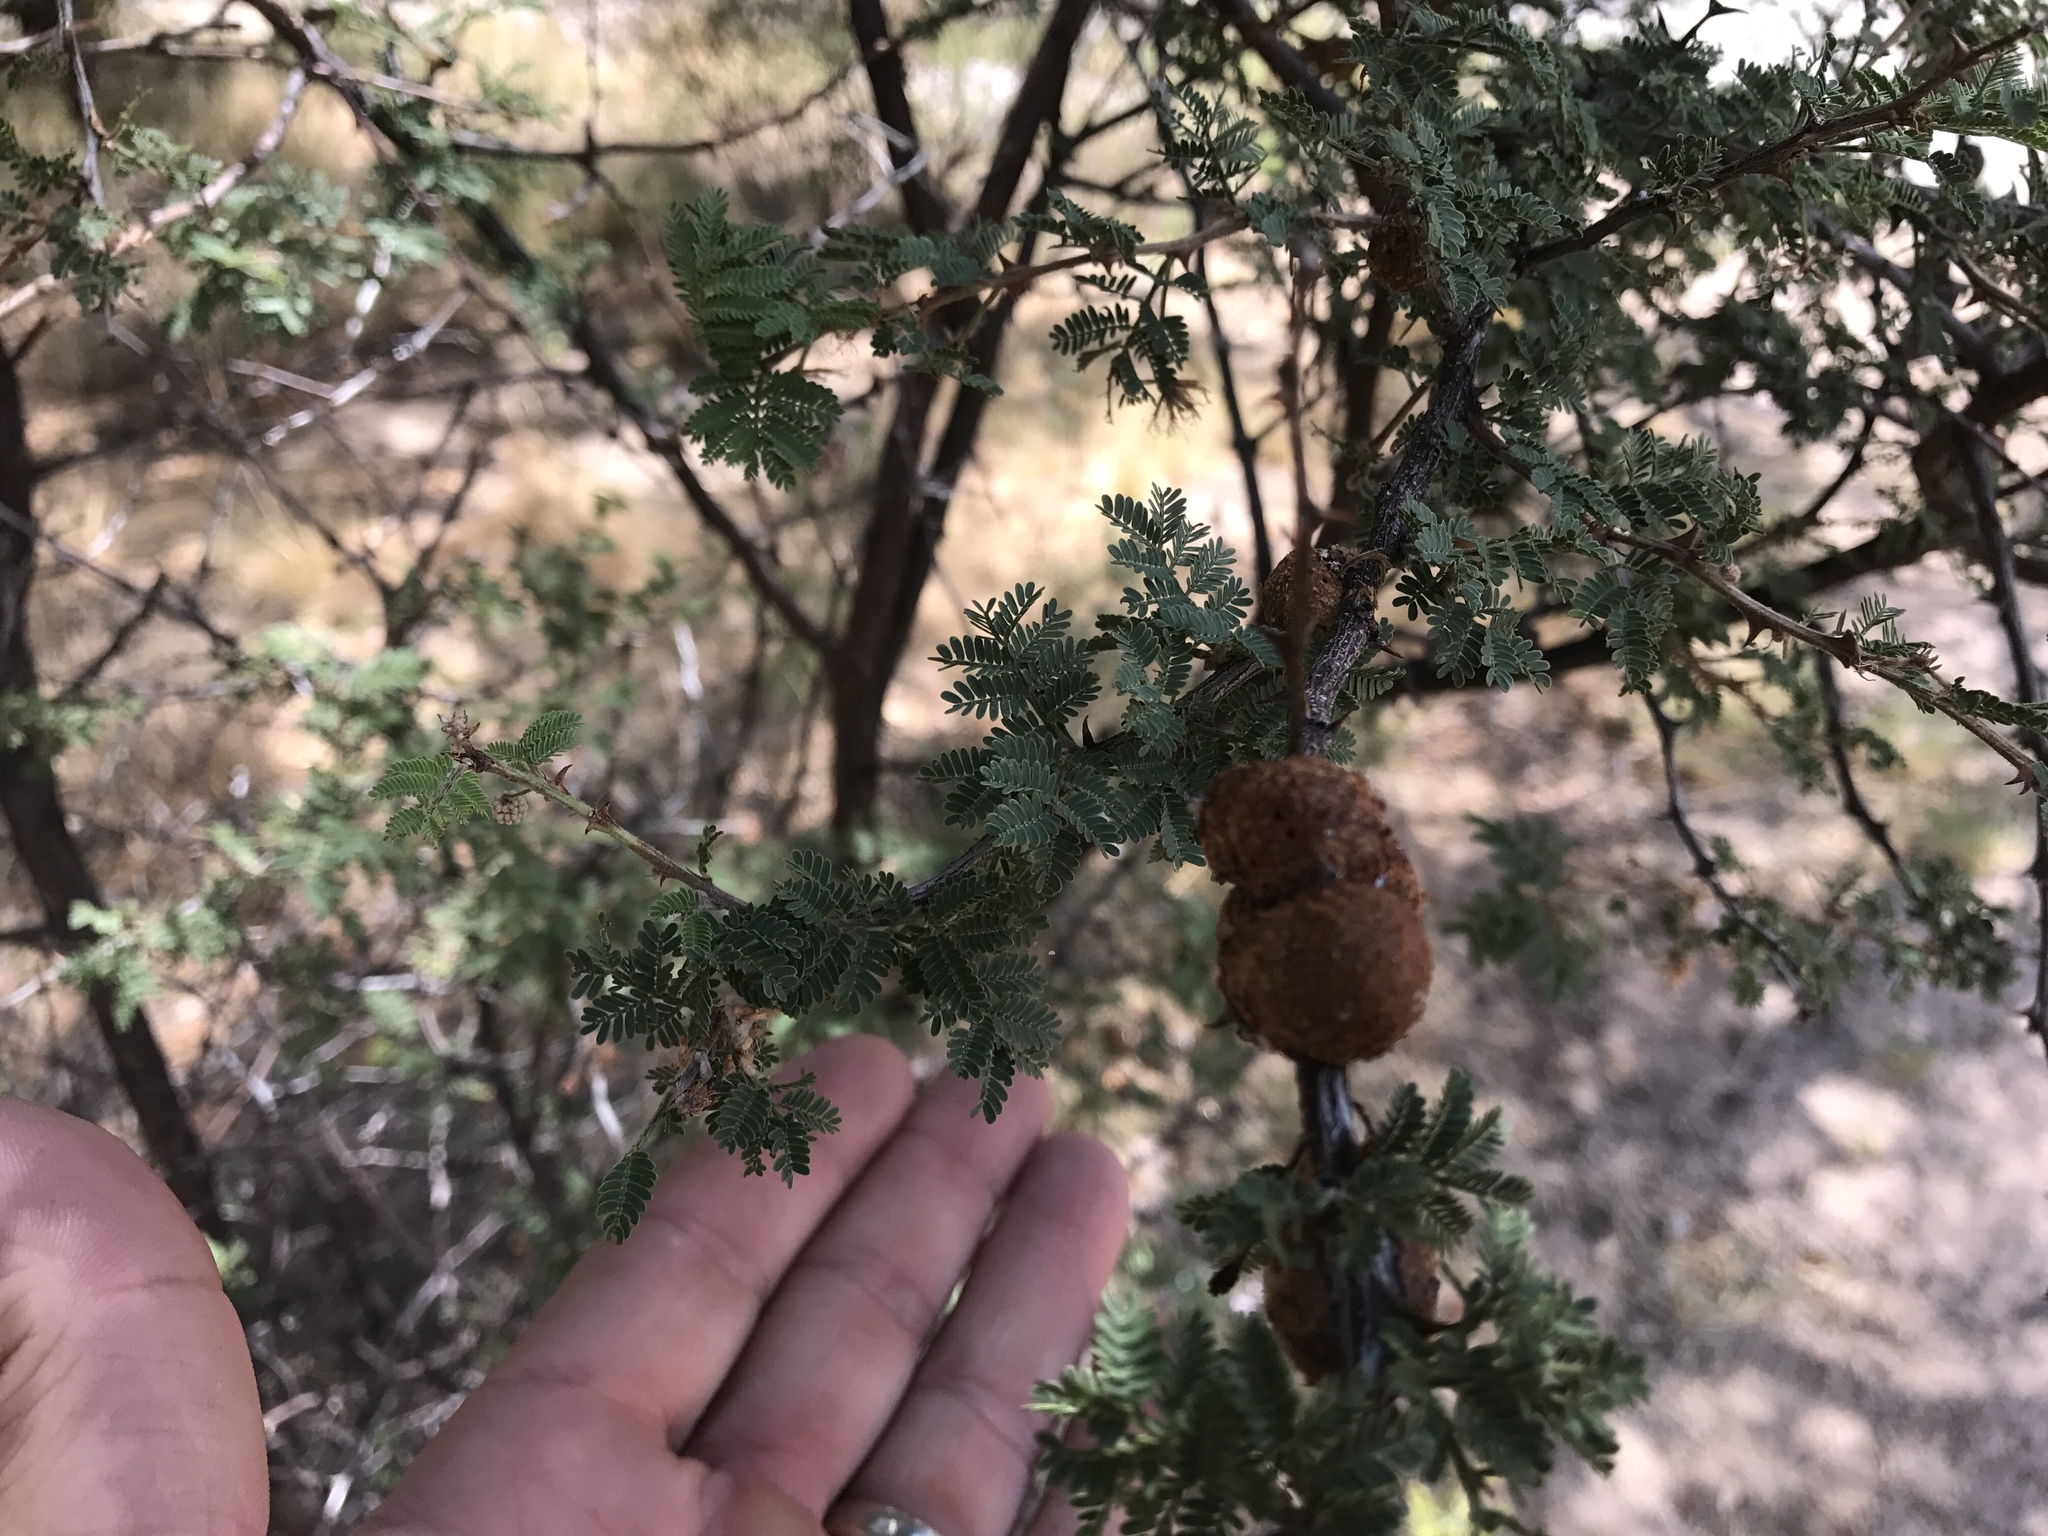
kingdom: Plantae
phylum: Tracheophyta
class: Magnoliopsida
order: Fabales
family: Fabaceae
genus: Mimosa
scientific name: Mimosa biuncifera
